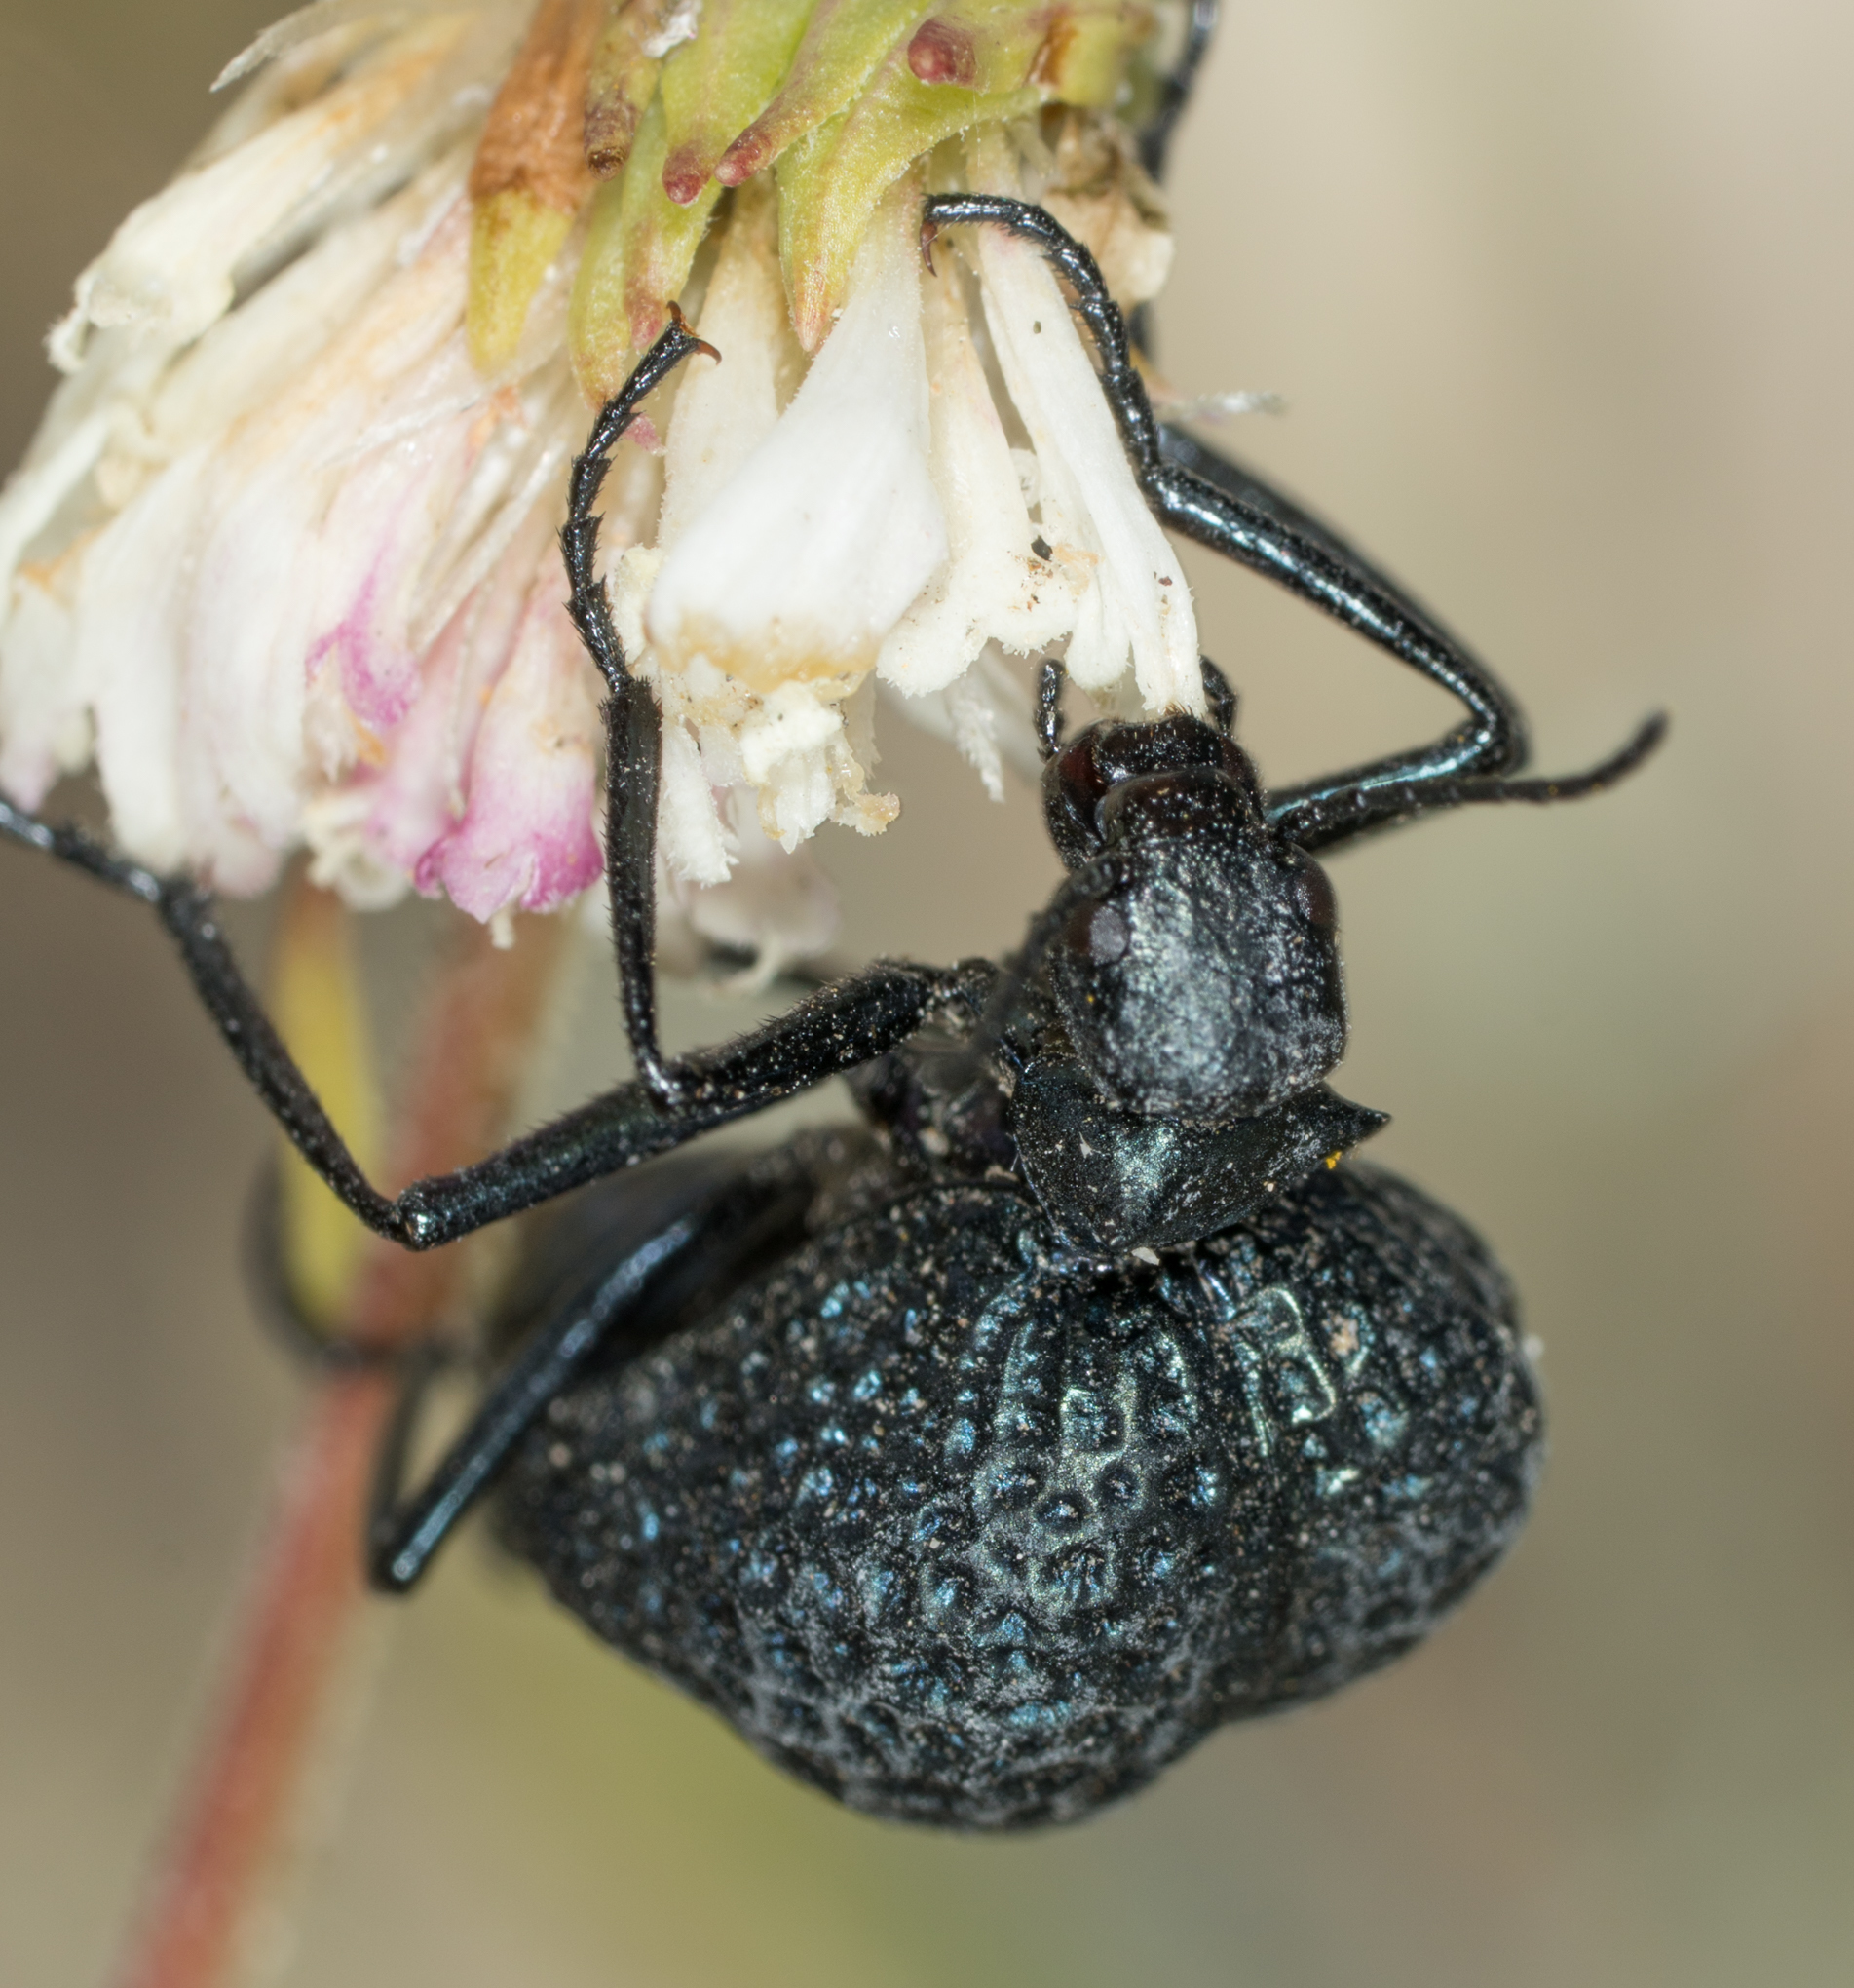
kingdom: Animalia
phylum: Arthropoda
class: Insecta
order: Coleoptera
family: Meloidae
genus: Cysteodemus
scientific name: Cysteodemus armatus
